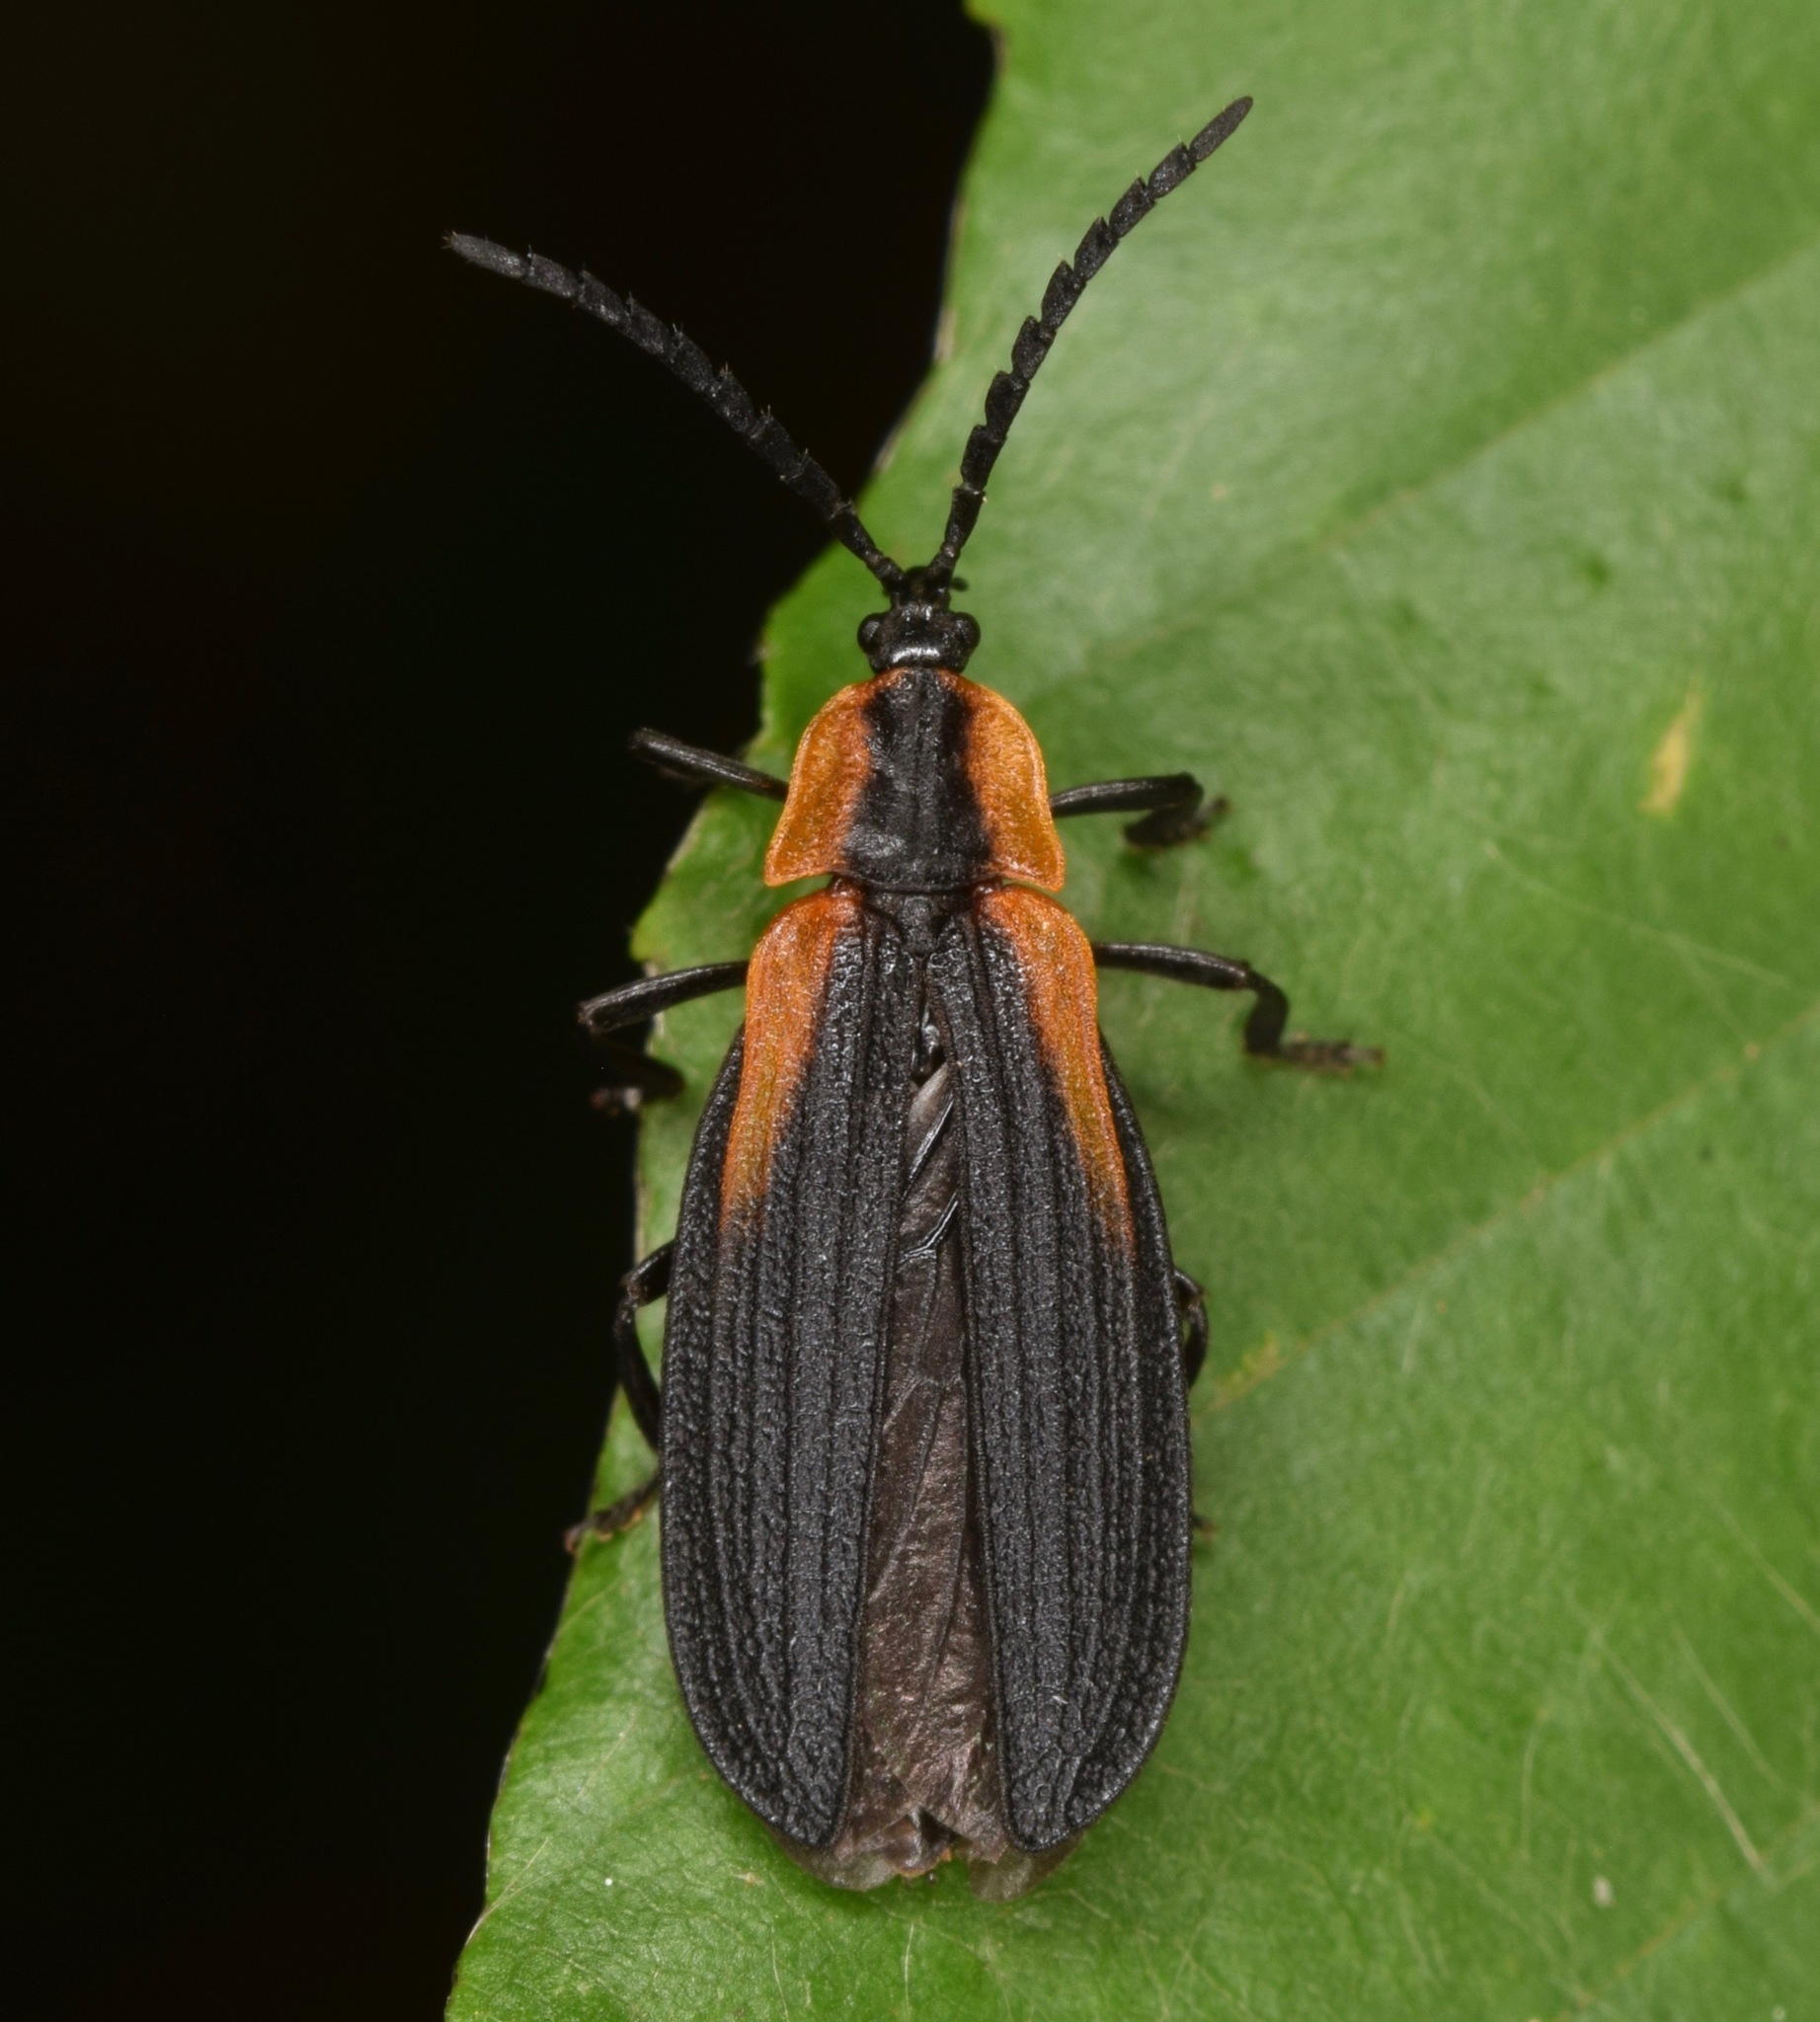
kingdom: Animalia
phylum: Arthropoda
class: Insecta
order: Coleoptera
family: Lycidae
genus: Lyconotus
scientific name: Lyconotus lateralis
